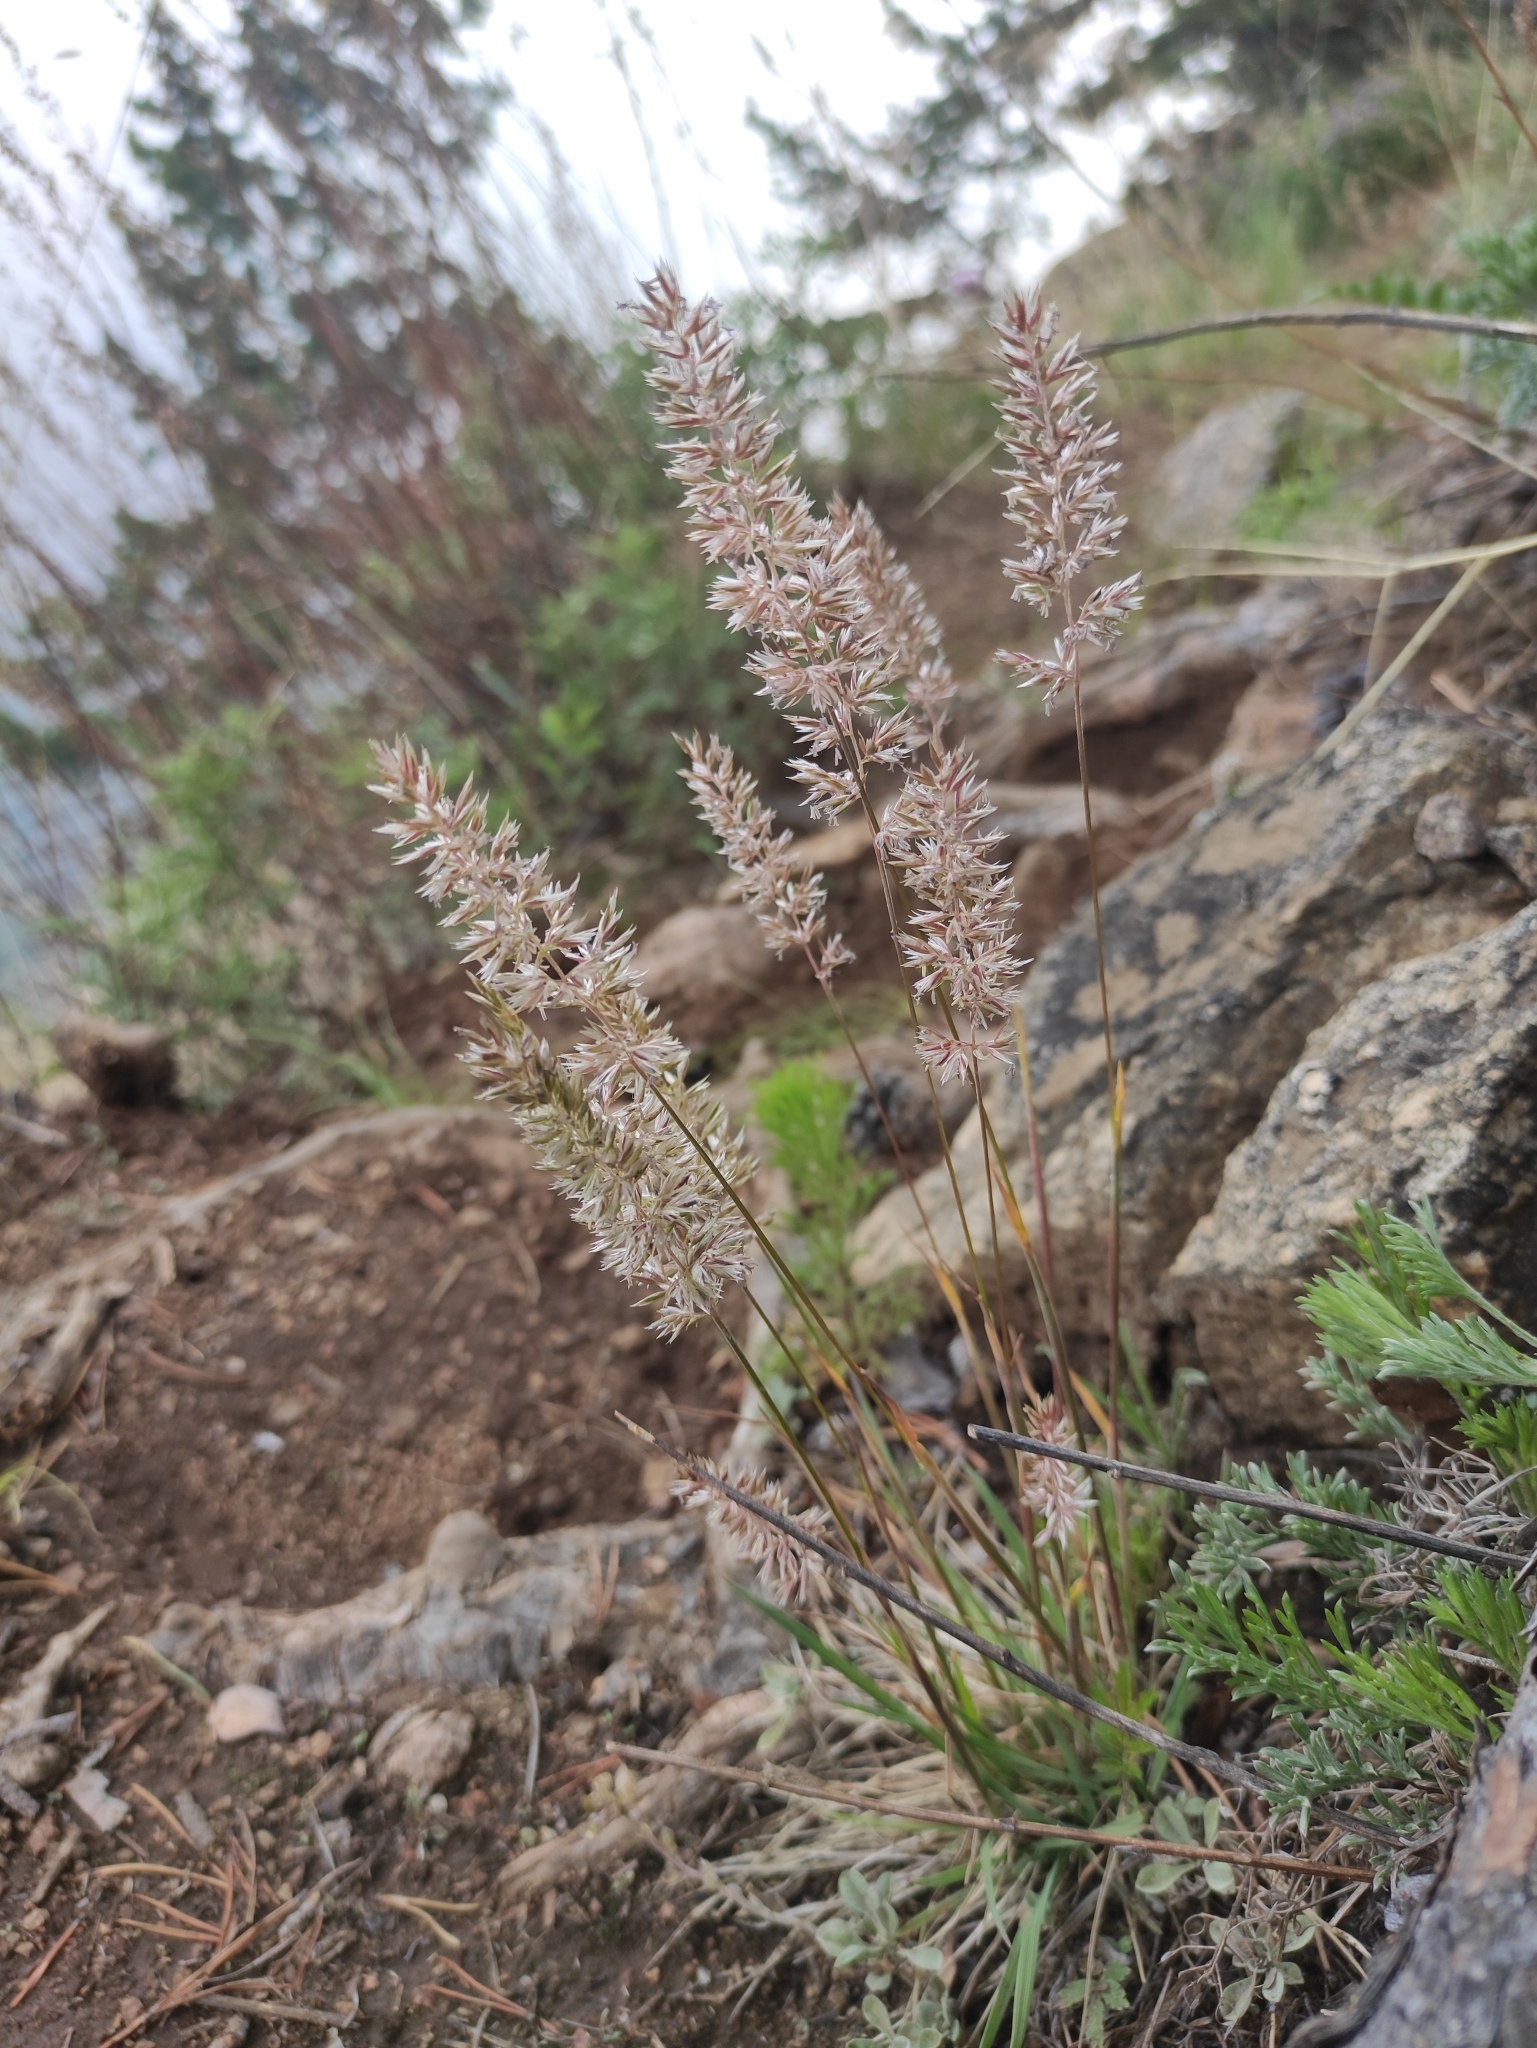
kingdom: Plantae
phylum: Tracheophyta
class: Liliopsida
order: Poales
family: Poaceae
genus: Koeleria
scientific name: Koeleria macrantha
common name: Crested hair-grass
